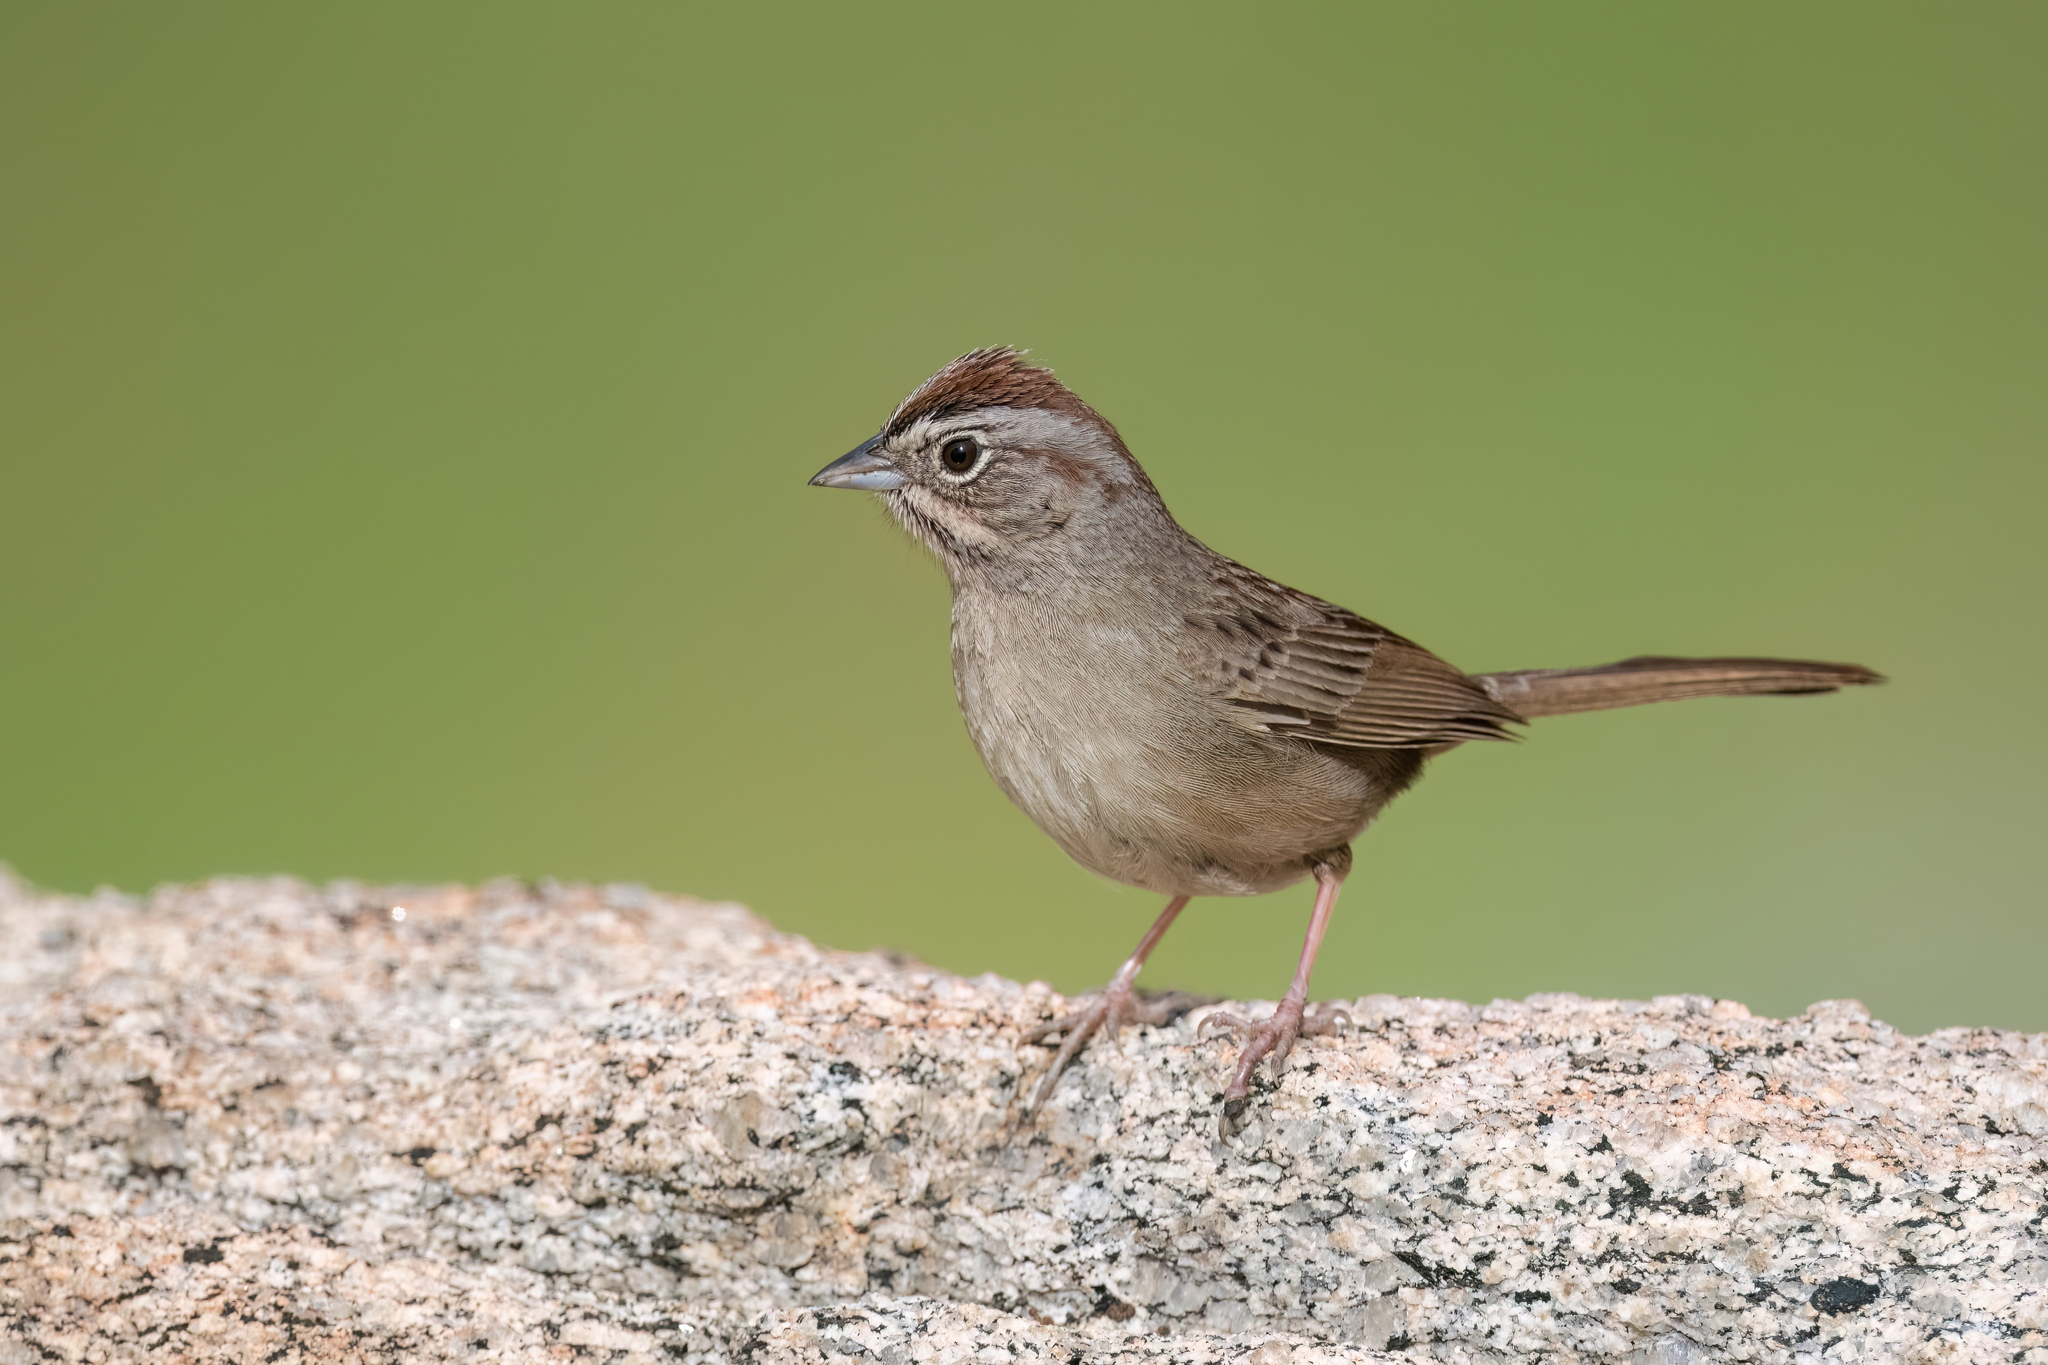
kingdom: Animalia
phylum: Chordata
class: Aves
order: Passeriformes
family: Passerellidae
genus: Aimophila
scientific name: Aimophila ruficeps
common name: Rufous-crowned sparrow
